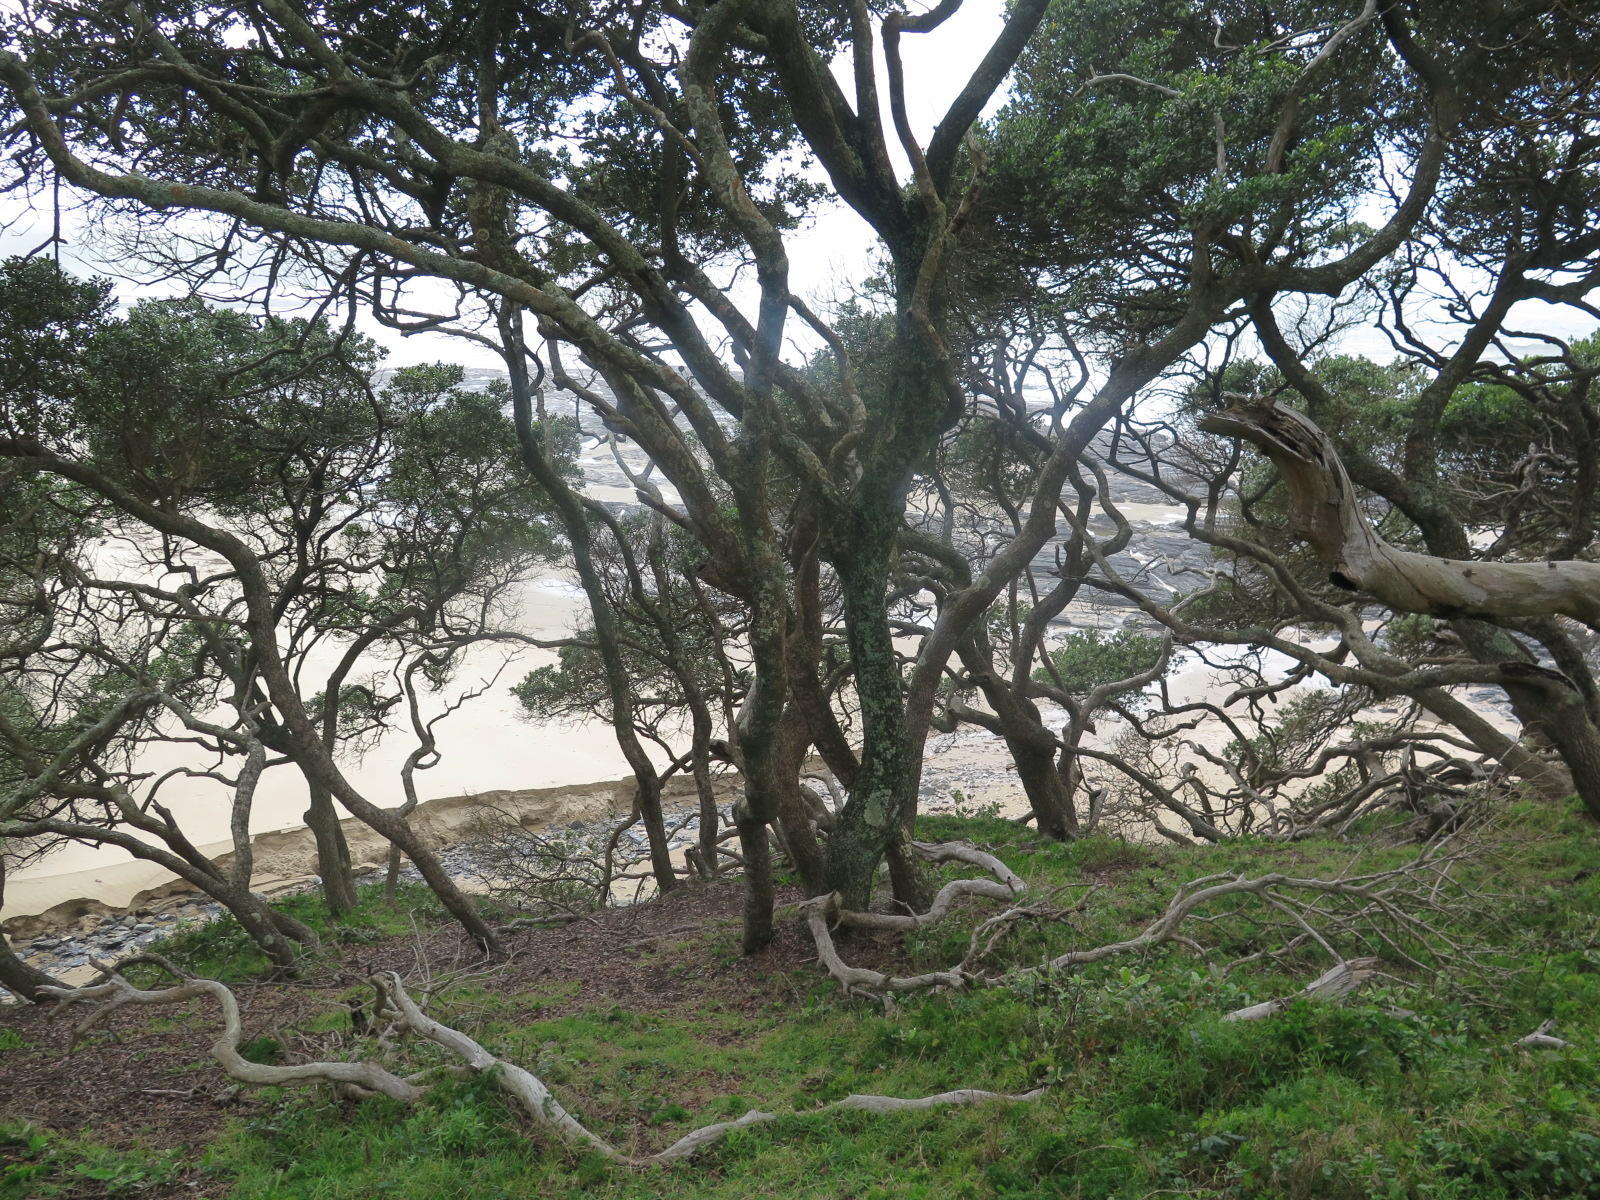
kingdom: Plantae
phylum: Tracheophyta
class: Magnoliopsida
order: Ericales
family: Sapotaceae
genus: Mimusops
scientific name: Mimusops caffra
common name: Coastal red milkwood
